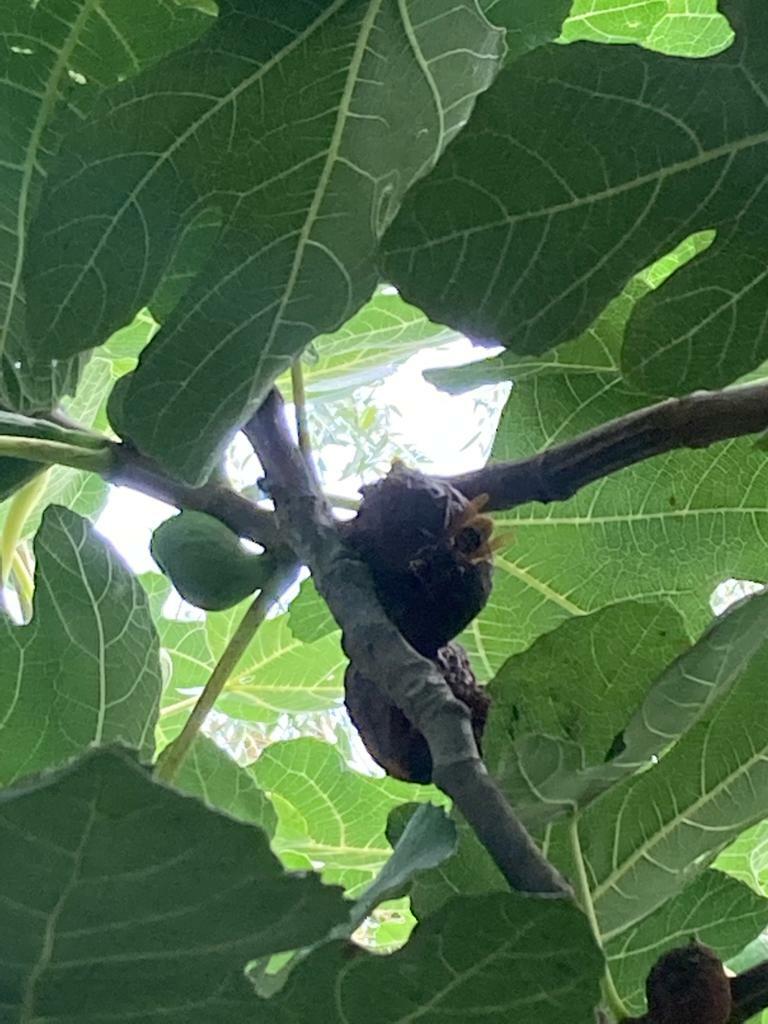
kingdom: Animalia
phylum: Arthropoda
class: Insecta
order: Hymenoptera
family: Vespidae
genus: Vespa
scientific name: Vespa crabro
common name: Hornet
